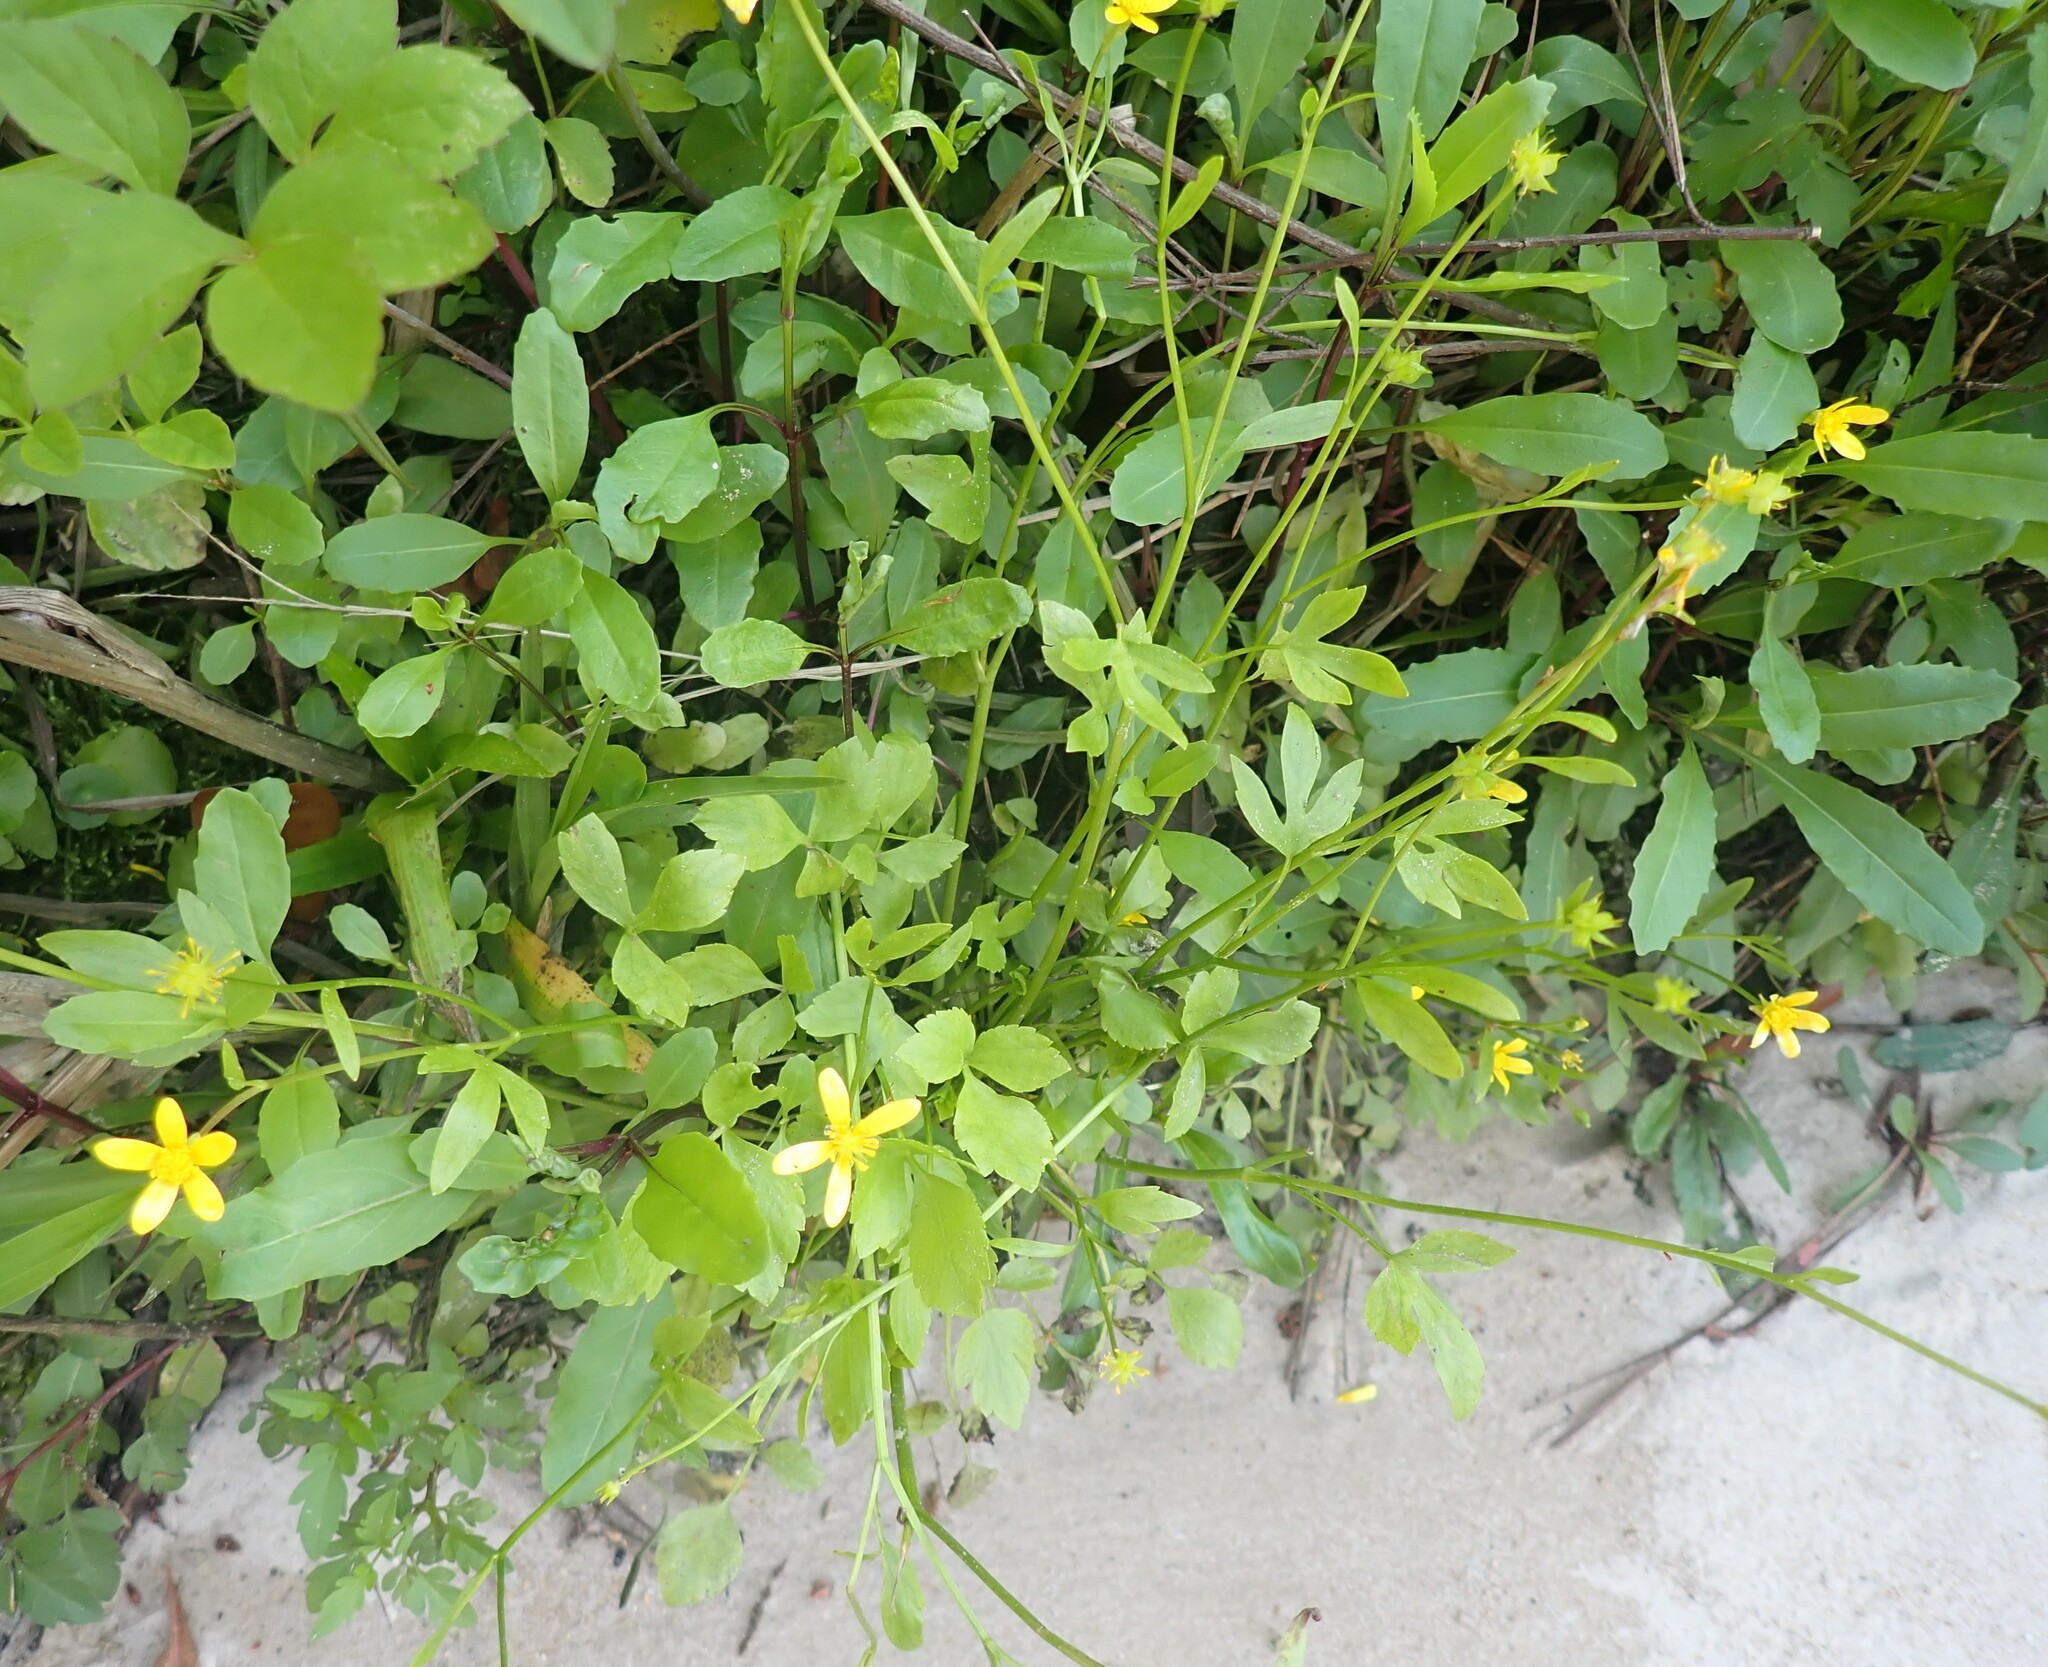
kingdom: Plantae
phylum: Tracheophyta
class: Magnoliopsida
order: Ranunculales
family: Ranunculaceae
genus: Ranunculus
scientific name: Ranunculus hispidus
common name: Bristly buttercup
